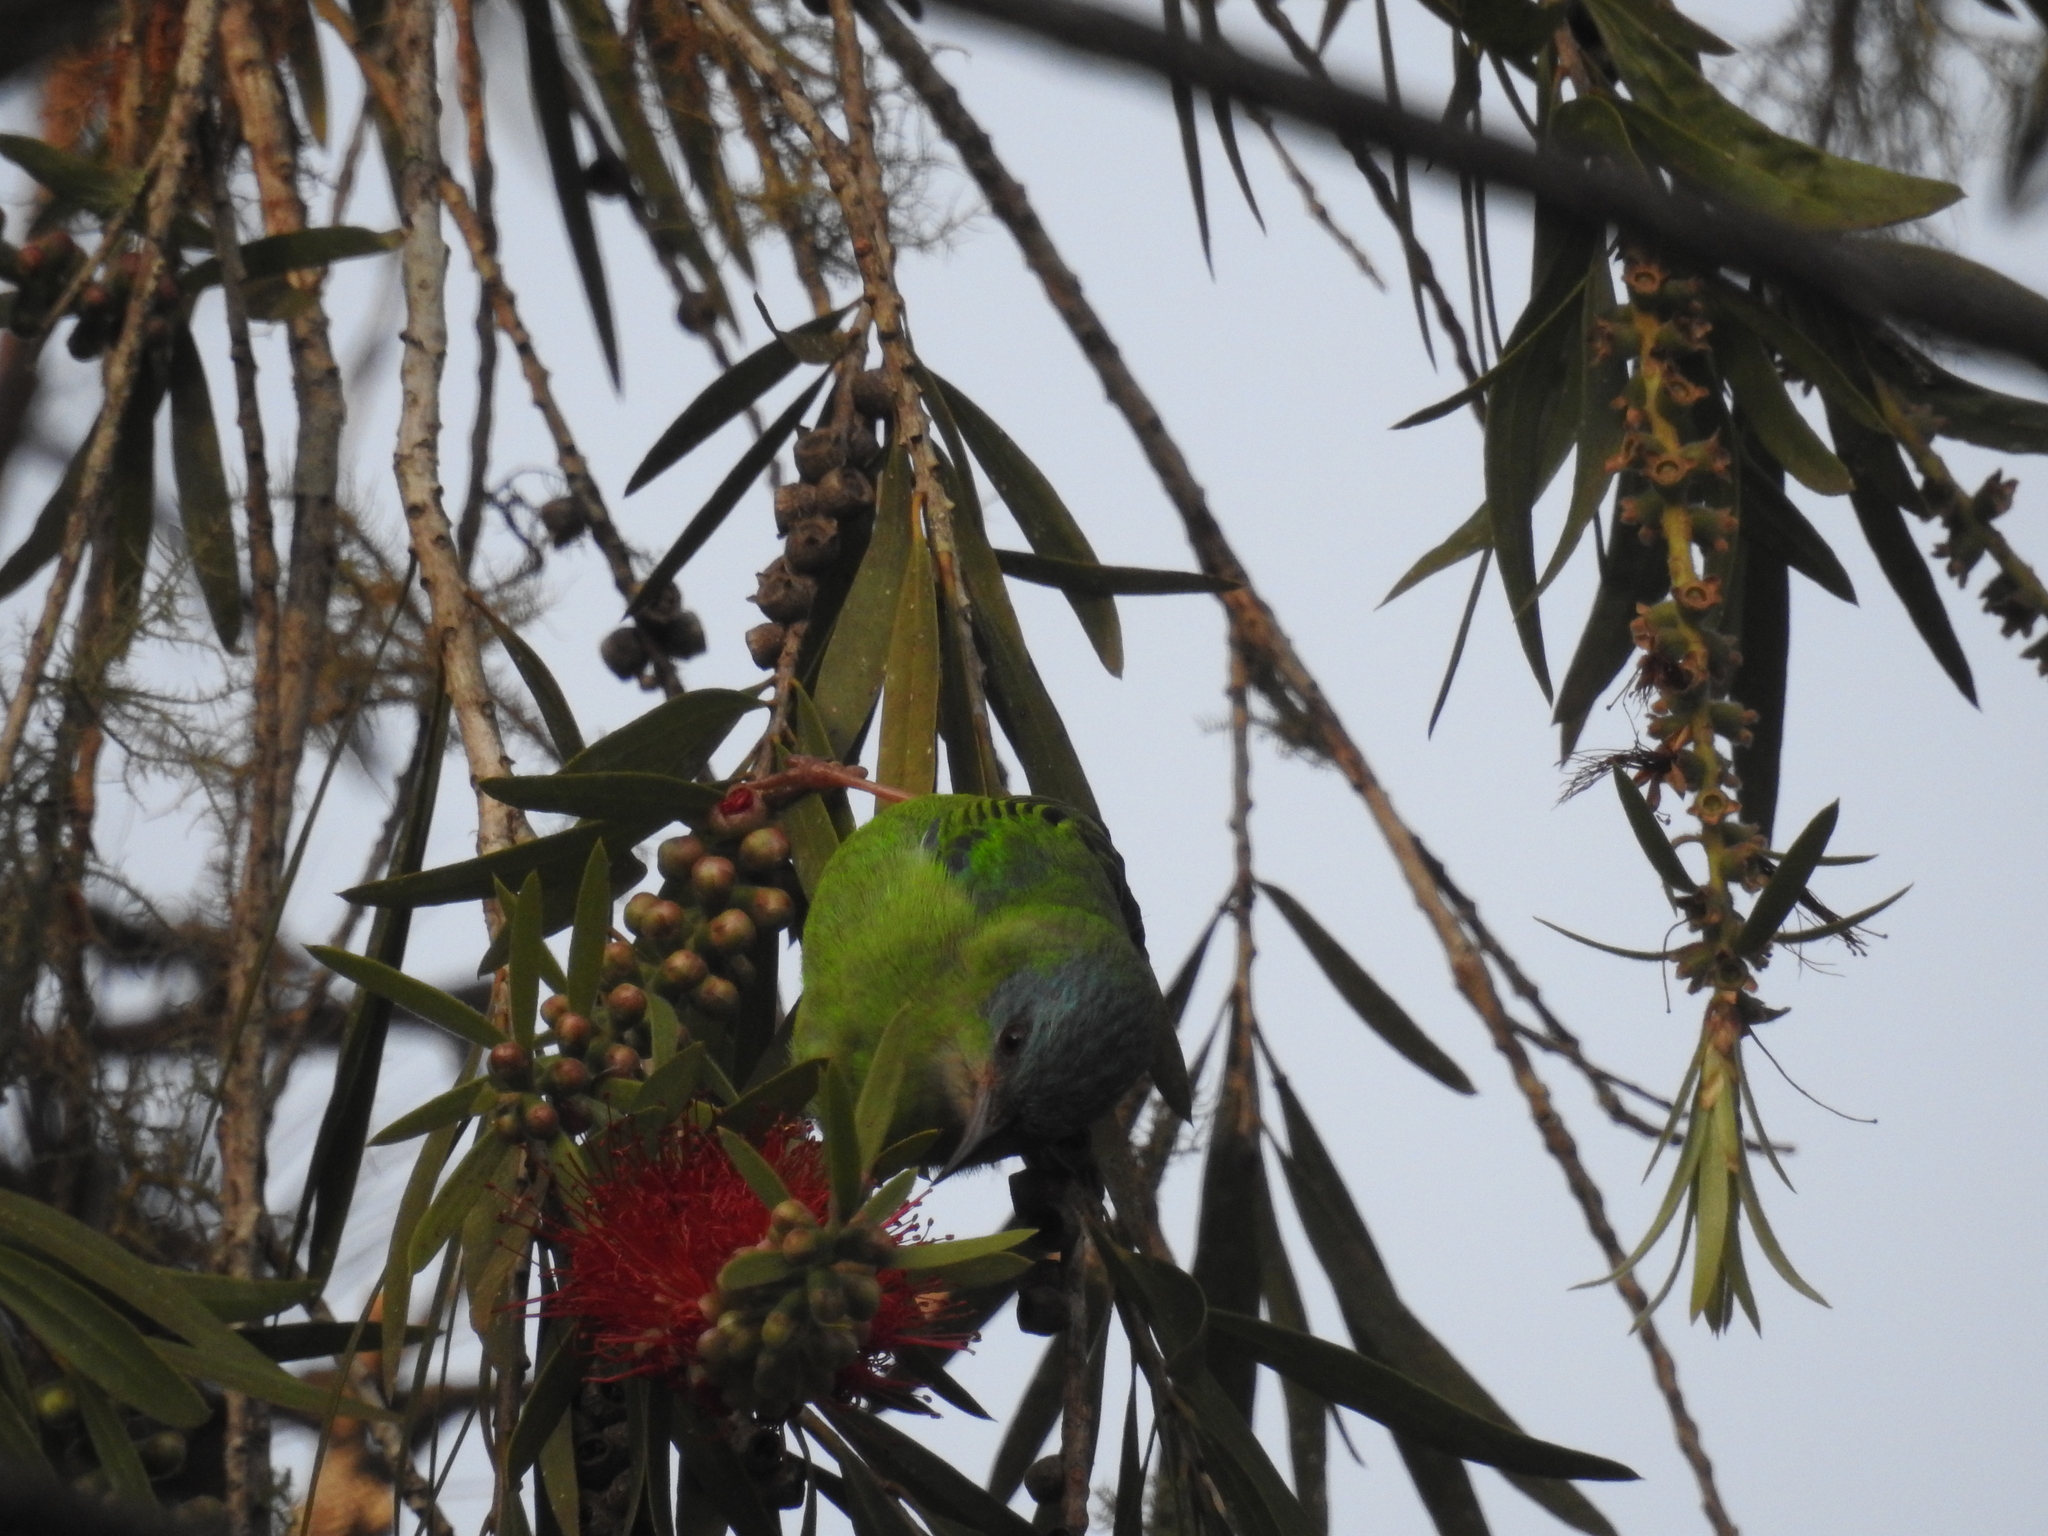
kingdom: Animalia
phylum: Chordata
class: Aves
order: Passeriformes
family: Thraupidae
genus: Dacnis
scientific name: Dacnis cayana
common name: Blue dacnis
